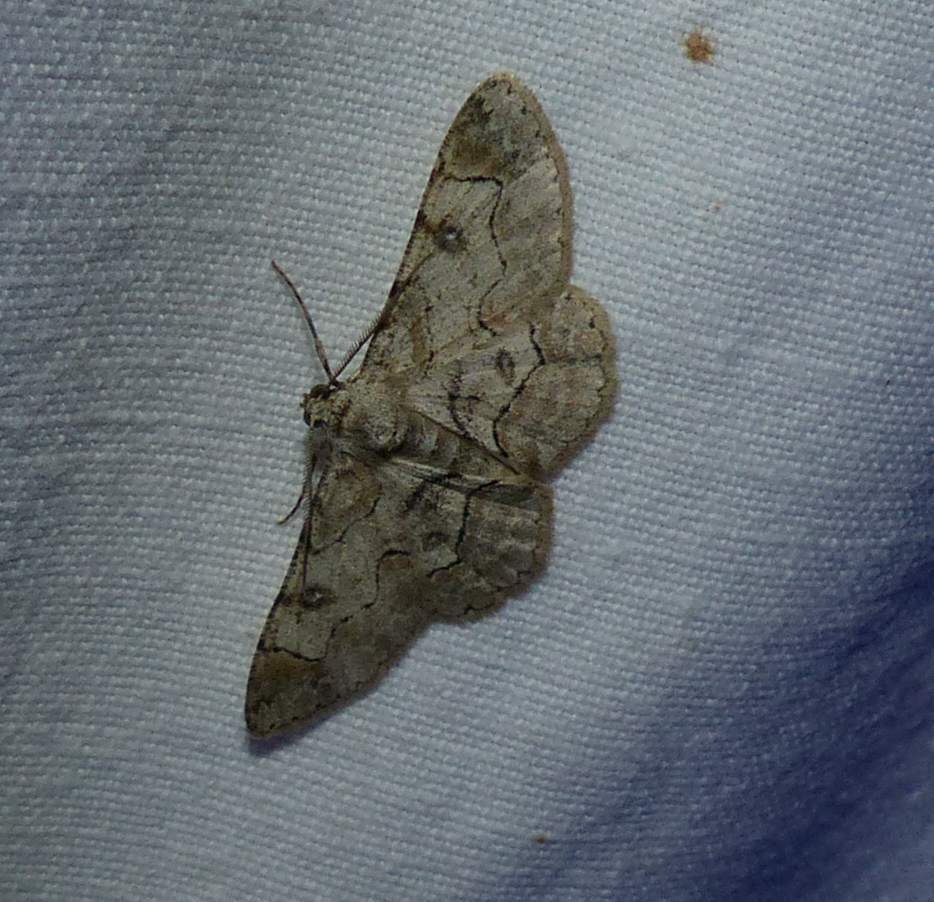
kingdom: Animalia
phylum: Arthropoda
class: Insecta
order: Lepidoptera
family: Geometridae
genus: Iridopsis
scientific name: Iridopsis larvaria
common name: Bent-line gray
